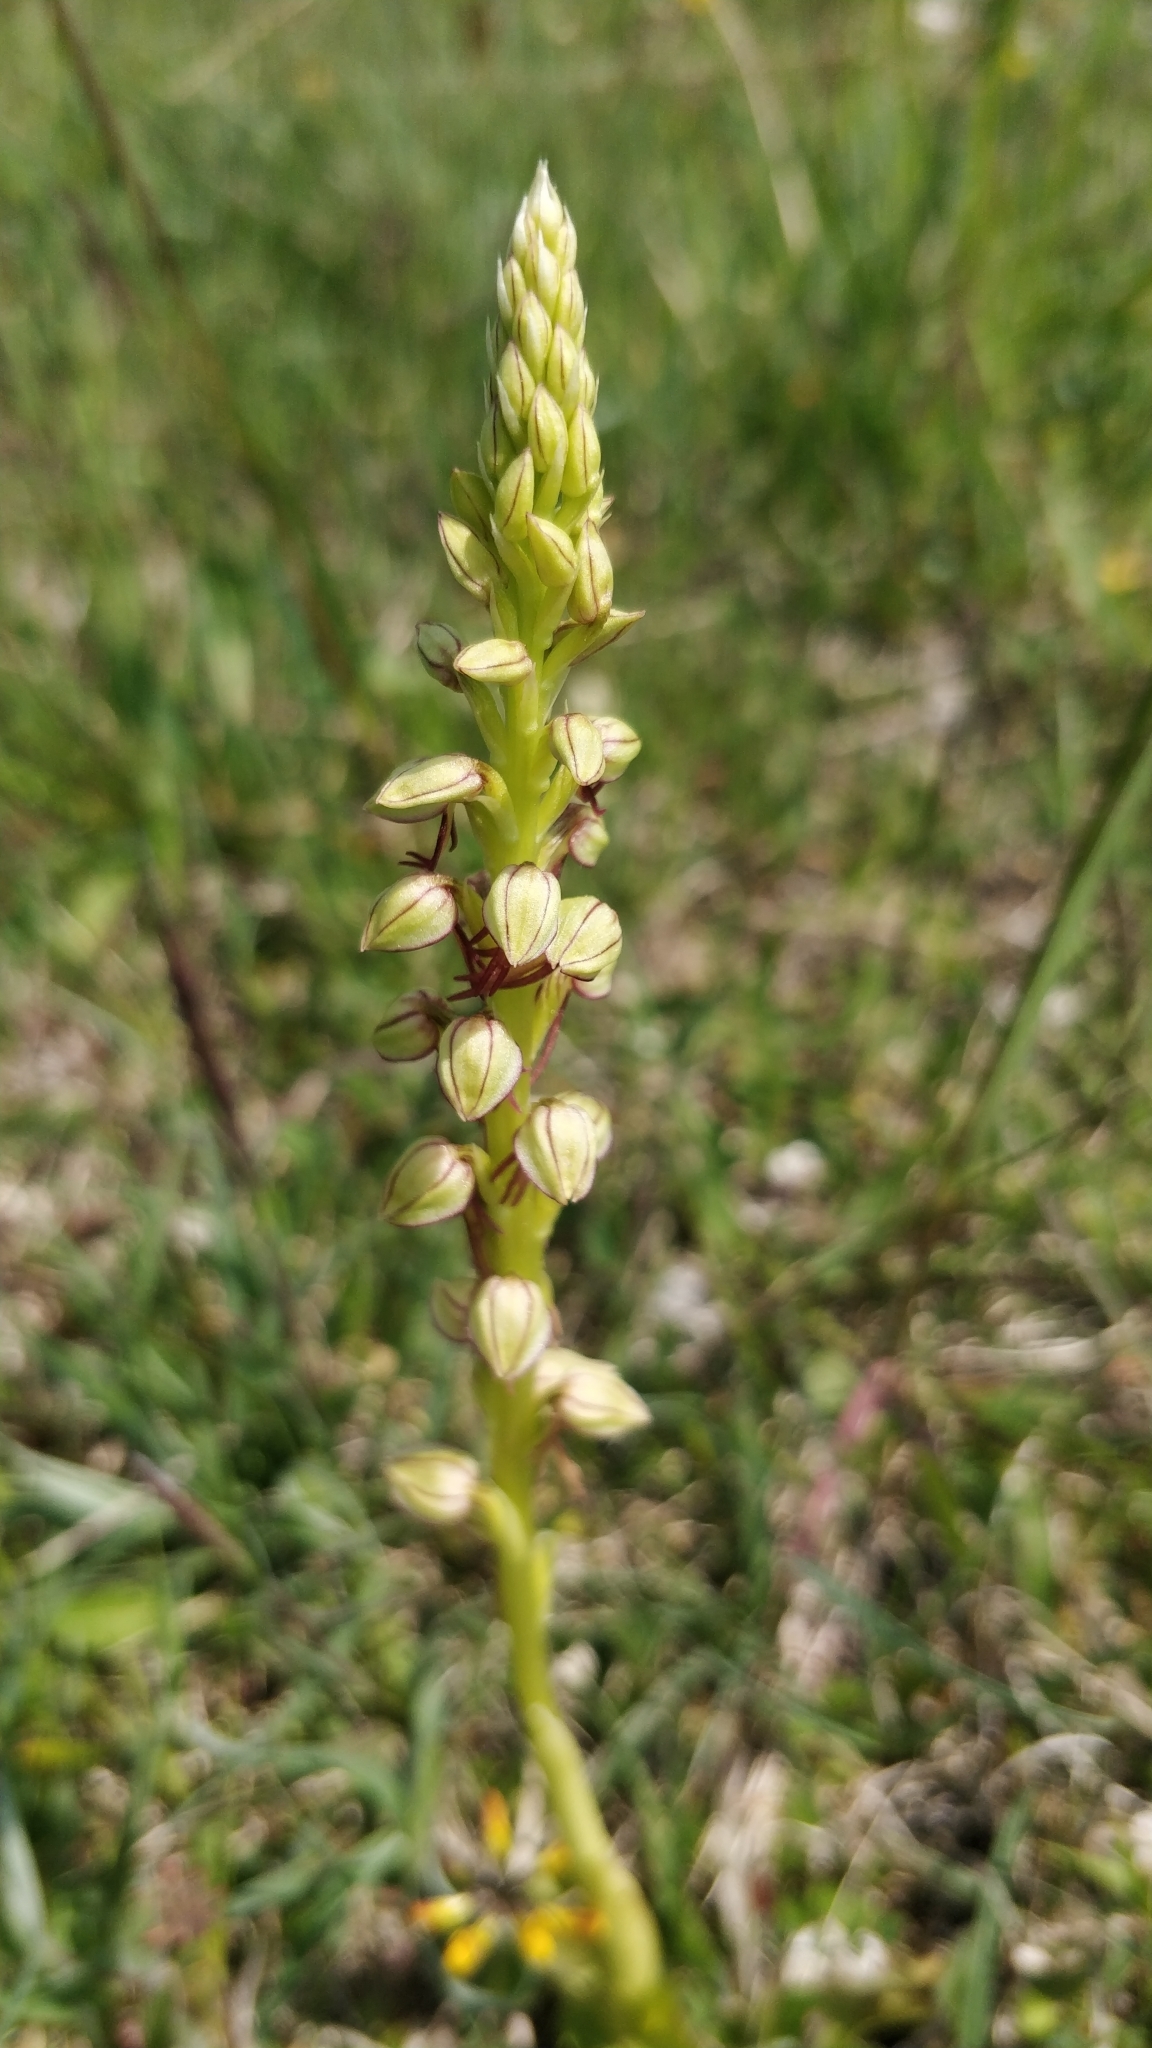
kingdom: Plantae
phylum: Tracheophyta
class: Liliopsida
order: Asparagales
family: Orchidaceae
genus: Orchis
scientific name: Orchis anthropophora
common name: Man orchid
